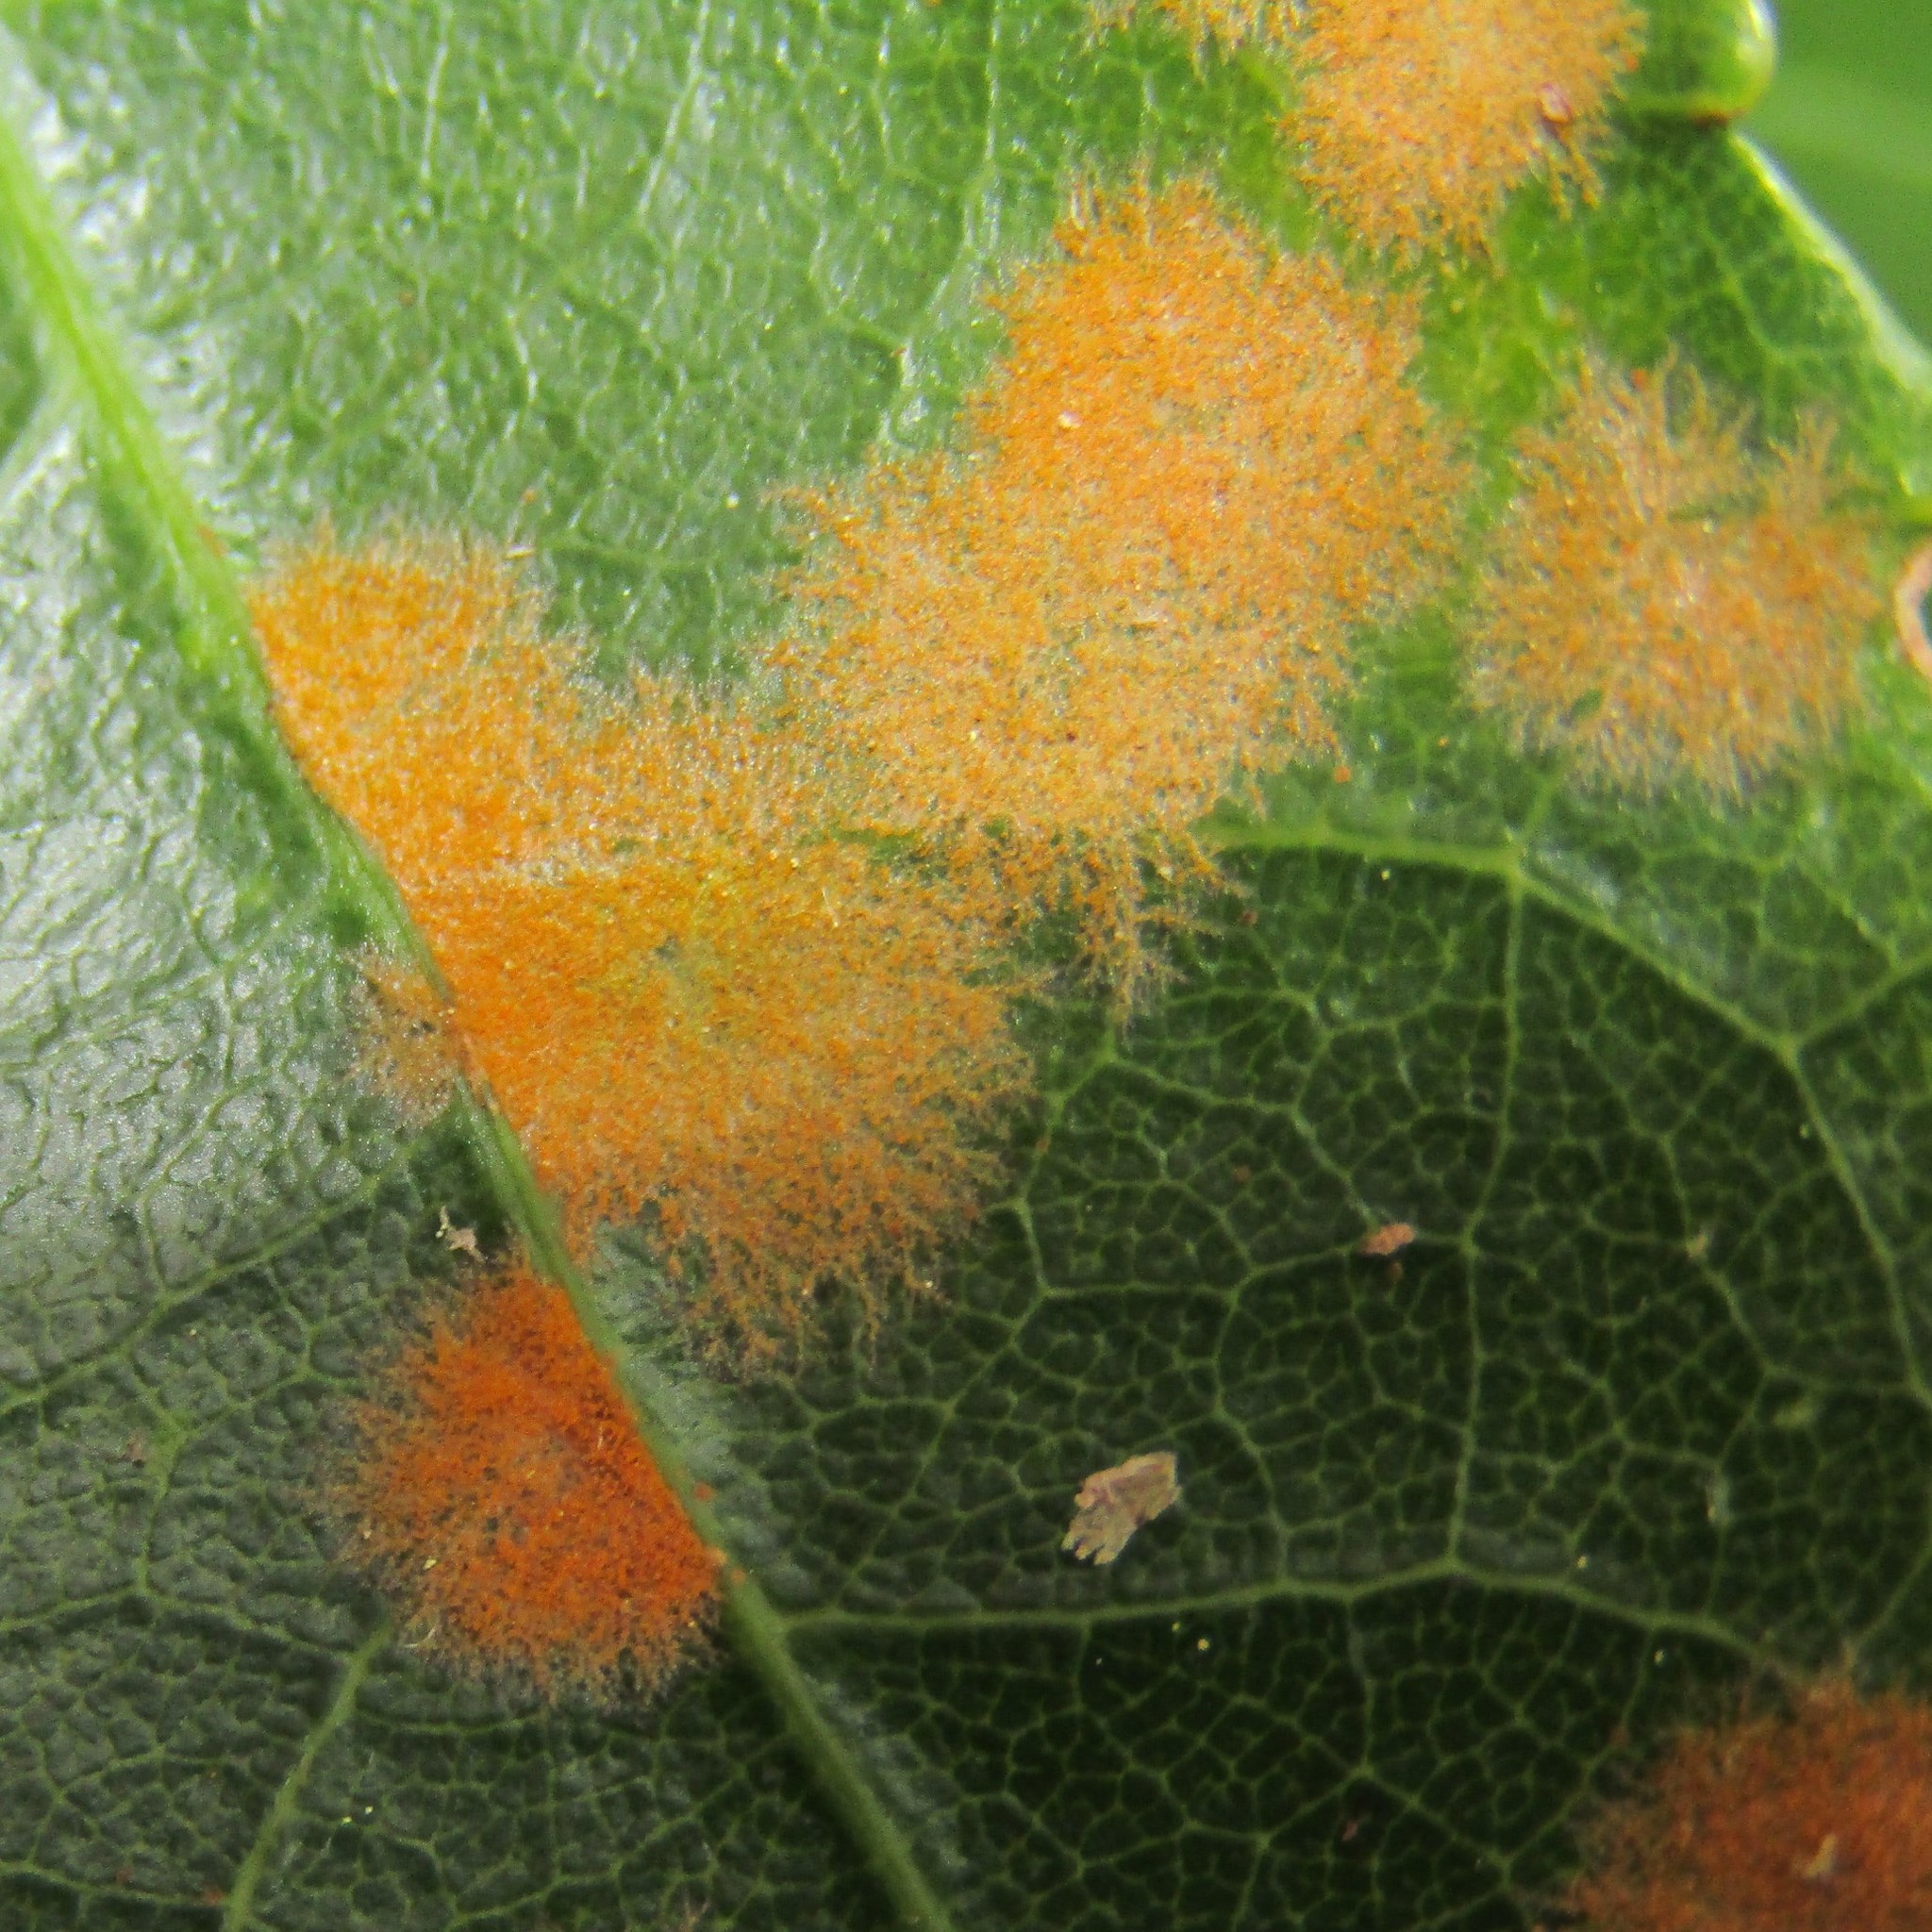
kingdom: Plantae
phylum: Chlorophyta
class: Ulvophyceae
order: Trentepohliales
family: Trentepohliaceae
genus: Cephaleuros
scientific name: Cephaleuros
